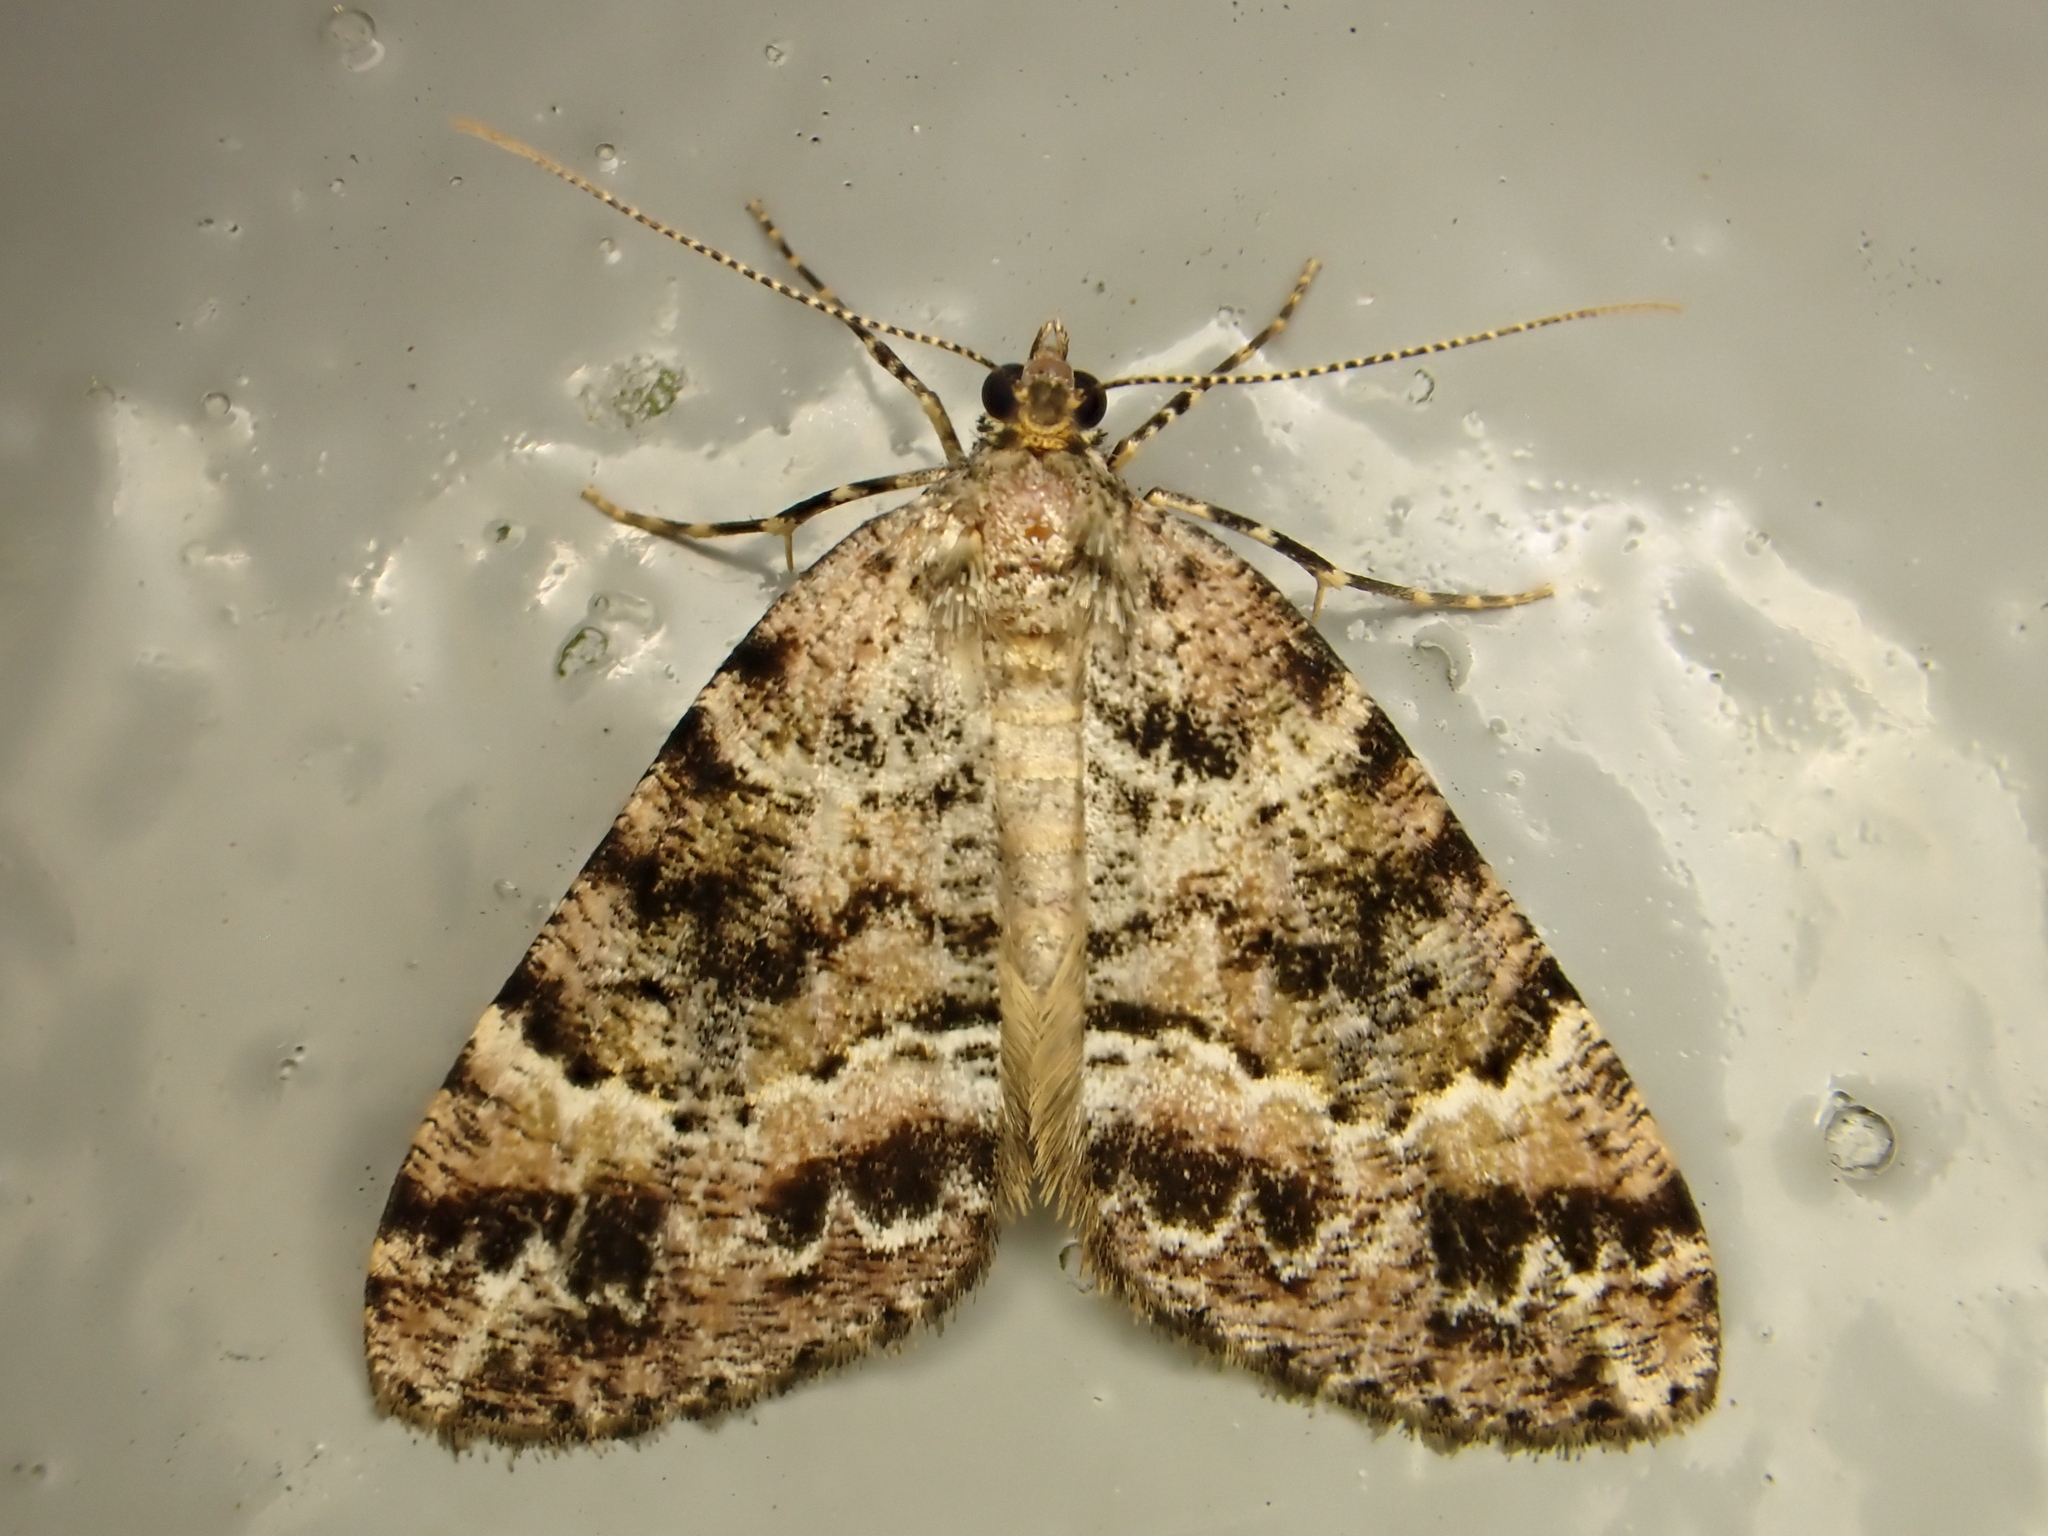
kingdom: Animalia
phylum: Arthropoda
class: Insecta
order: Lepidoptera
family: Geometridae
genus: Pseudocoremia
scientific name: Pseudocoremia productata
